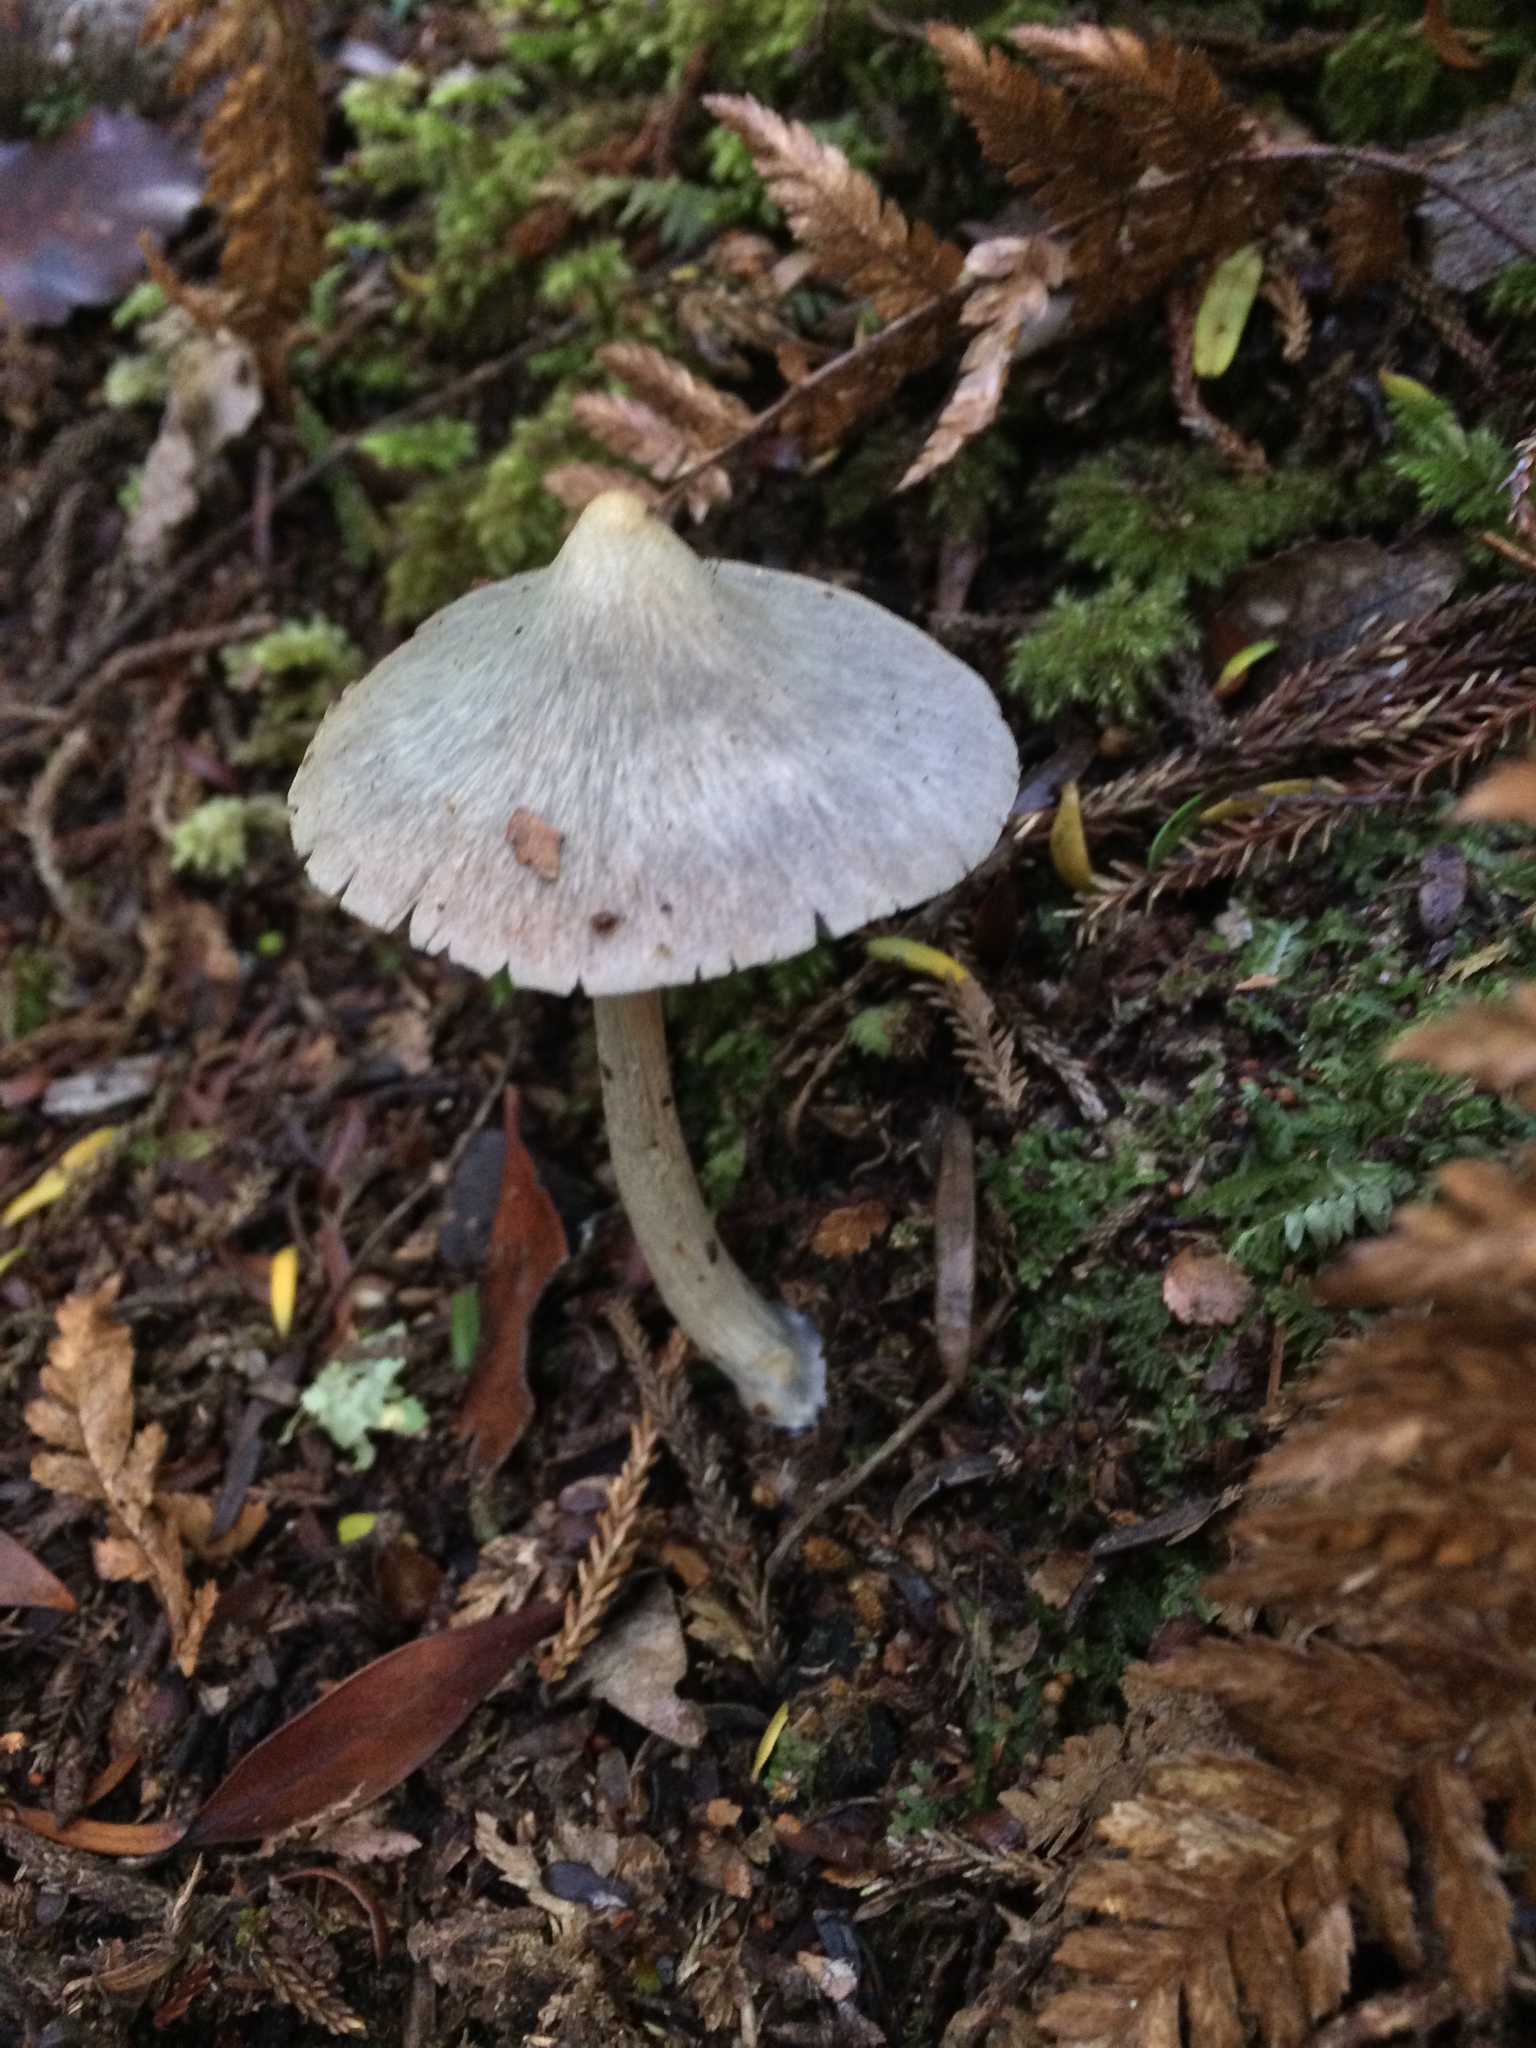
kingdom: Fungi
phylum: Basidiomycota
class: Agaricomycetes
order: Agaricales
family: Entolomataceae
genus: Entoloma
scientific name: Entoloma canoconicum
